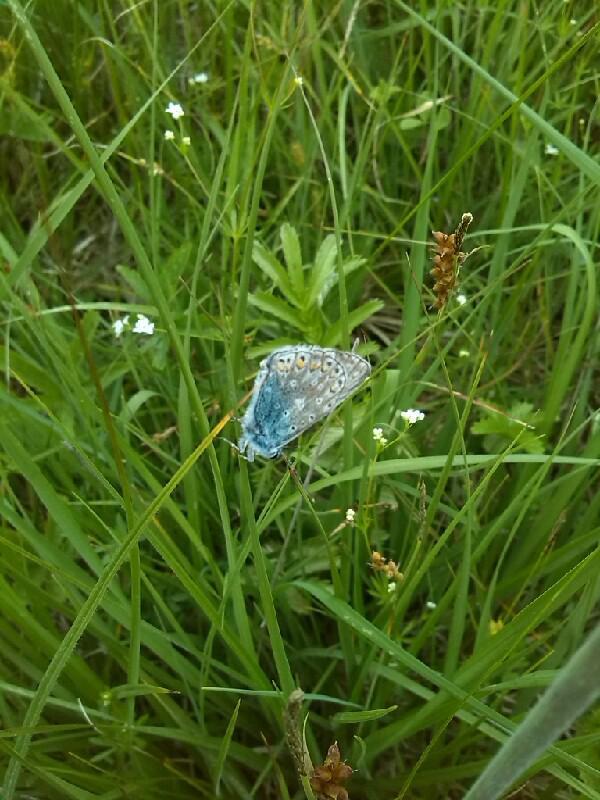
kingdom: Animalia
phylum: Arthropoda
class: Insecta
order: Lepidoptera
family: Lycaenidae
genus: Polyommatus
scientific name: Polyommatus icarus
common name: Common blue
